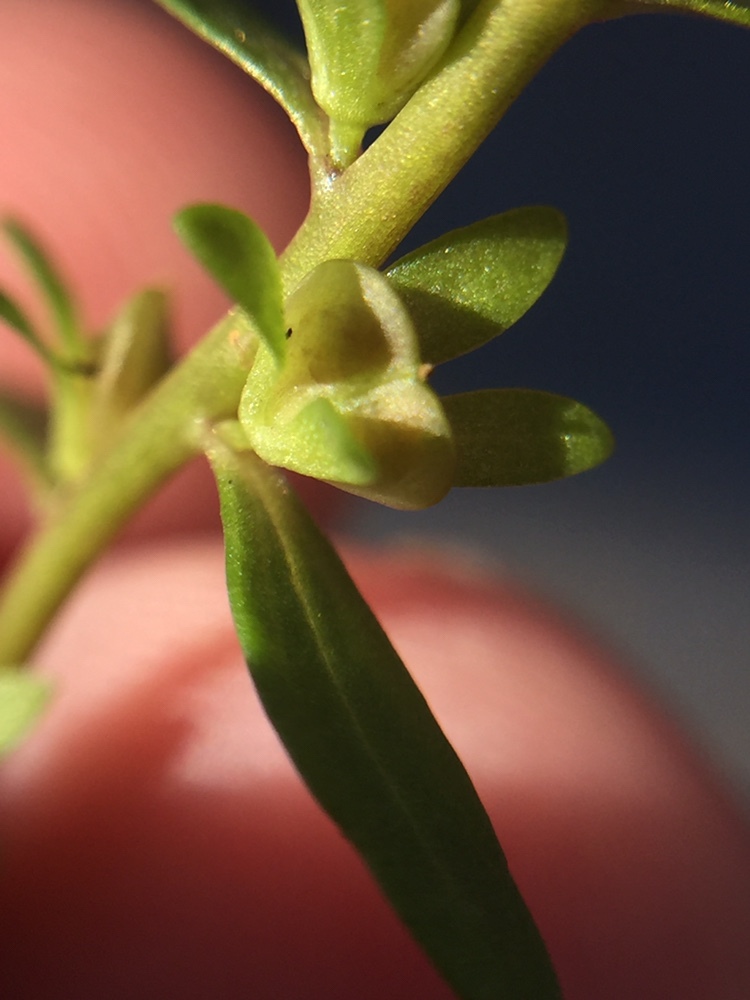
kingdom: Plantae
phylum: Tracheophyta
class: Magnoliopsida
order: Lamiales
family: Plantaginaceae
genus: Veronica
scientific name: Veronica peregrina
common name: Neckweed
